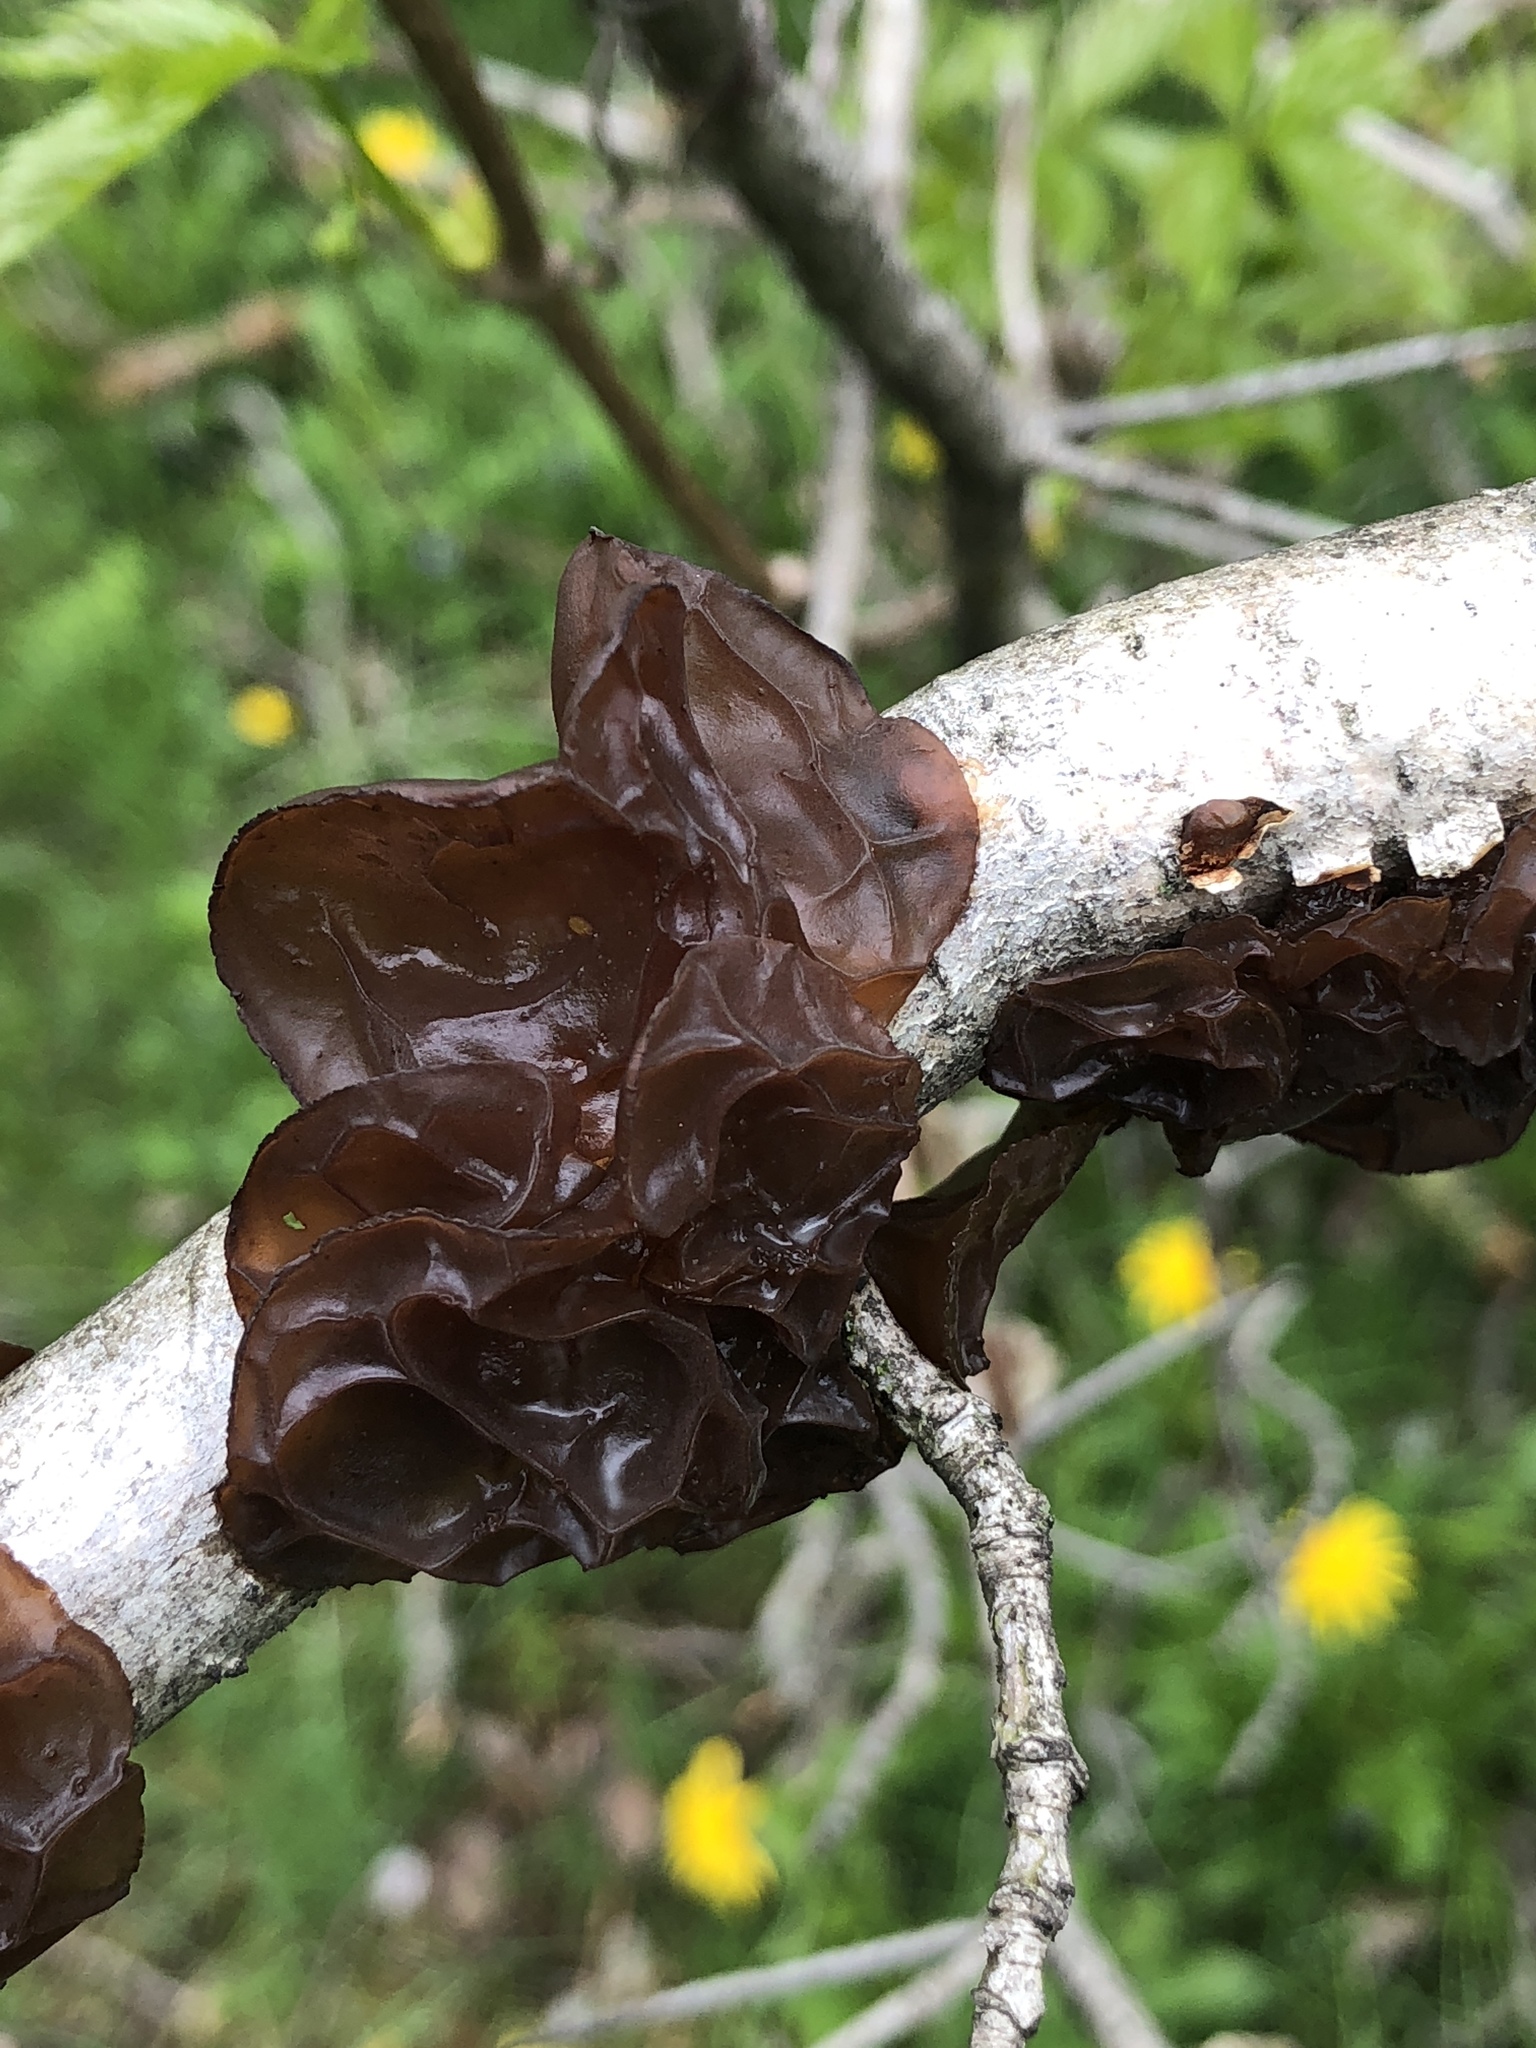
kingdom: Fungi
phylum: Basidiomycota
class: Agaricomycetes
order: Auriculariales
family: Auriculariaceae
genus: Exidia
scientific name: Exidia
